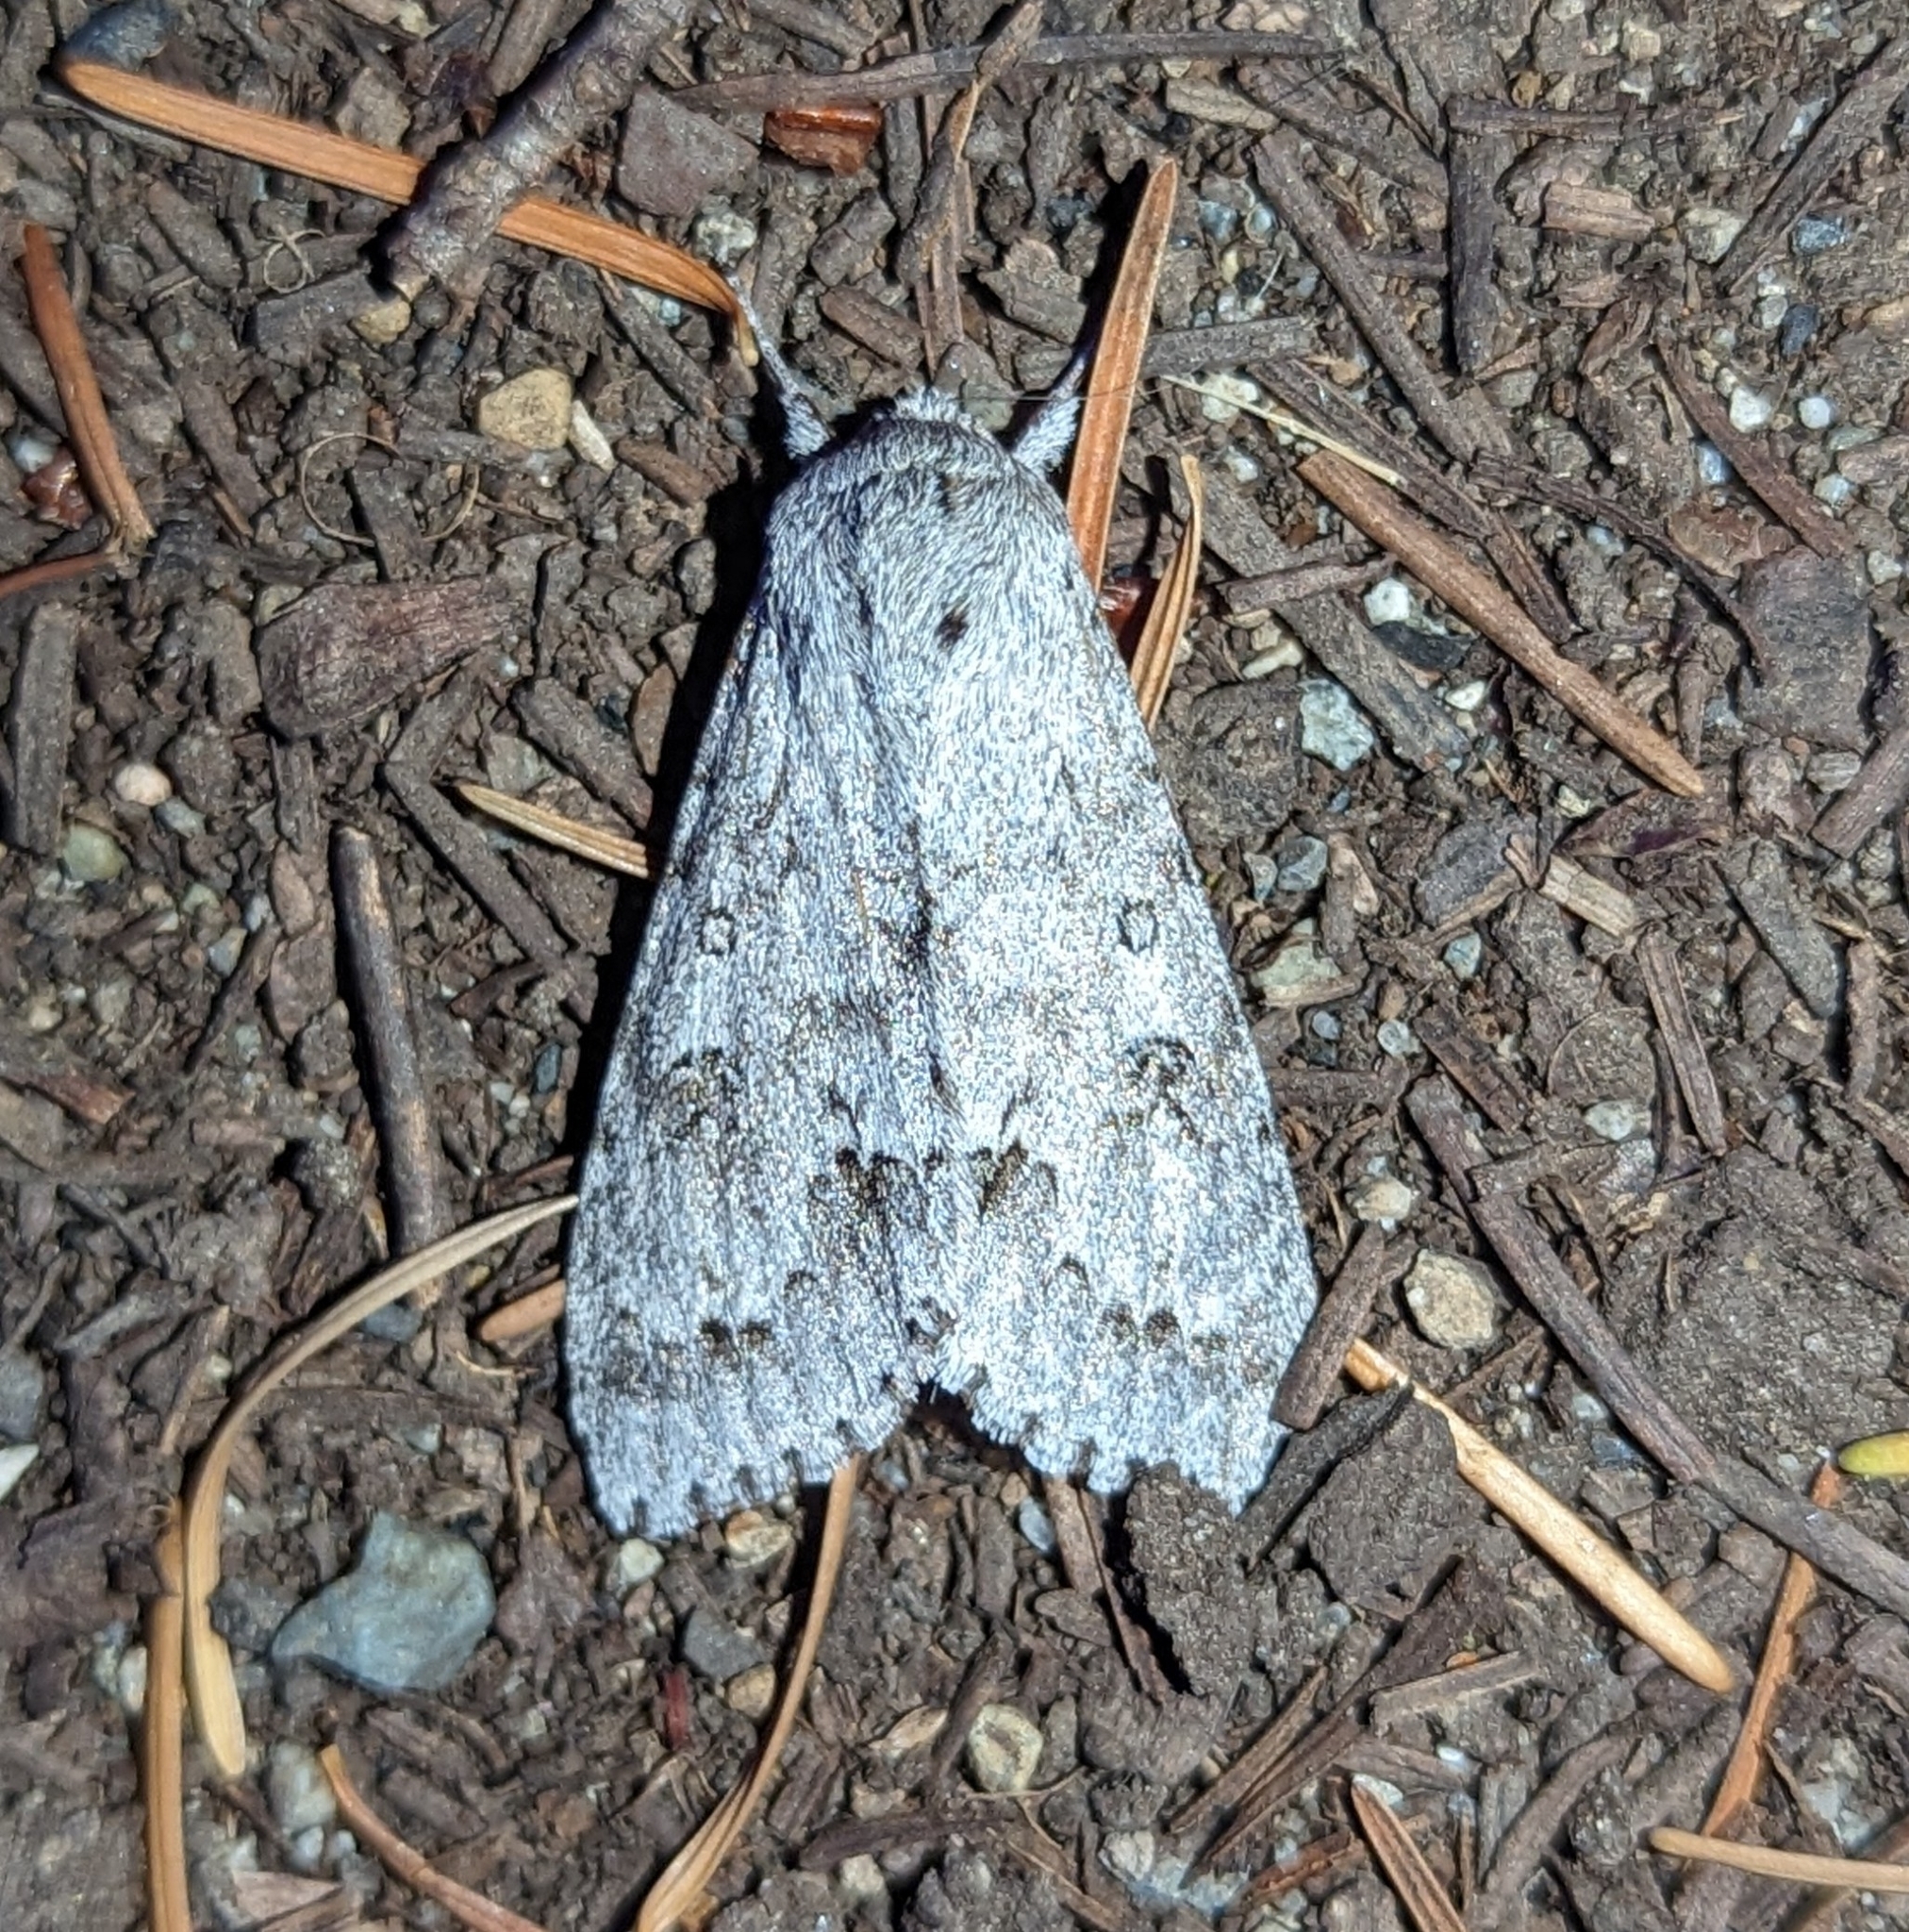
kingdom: Animalia
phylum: Arthropoda
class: Insecta
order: Lepidoptera
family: Noctuidae
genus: Acronicta
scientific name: Acronicta insita
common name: Large gray dagger
